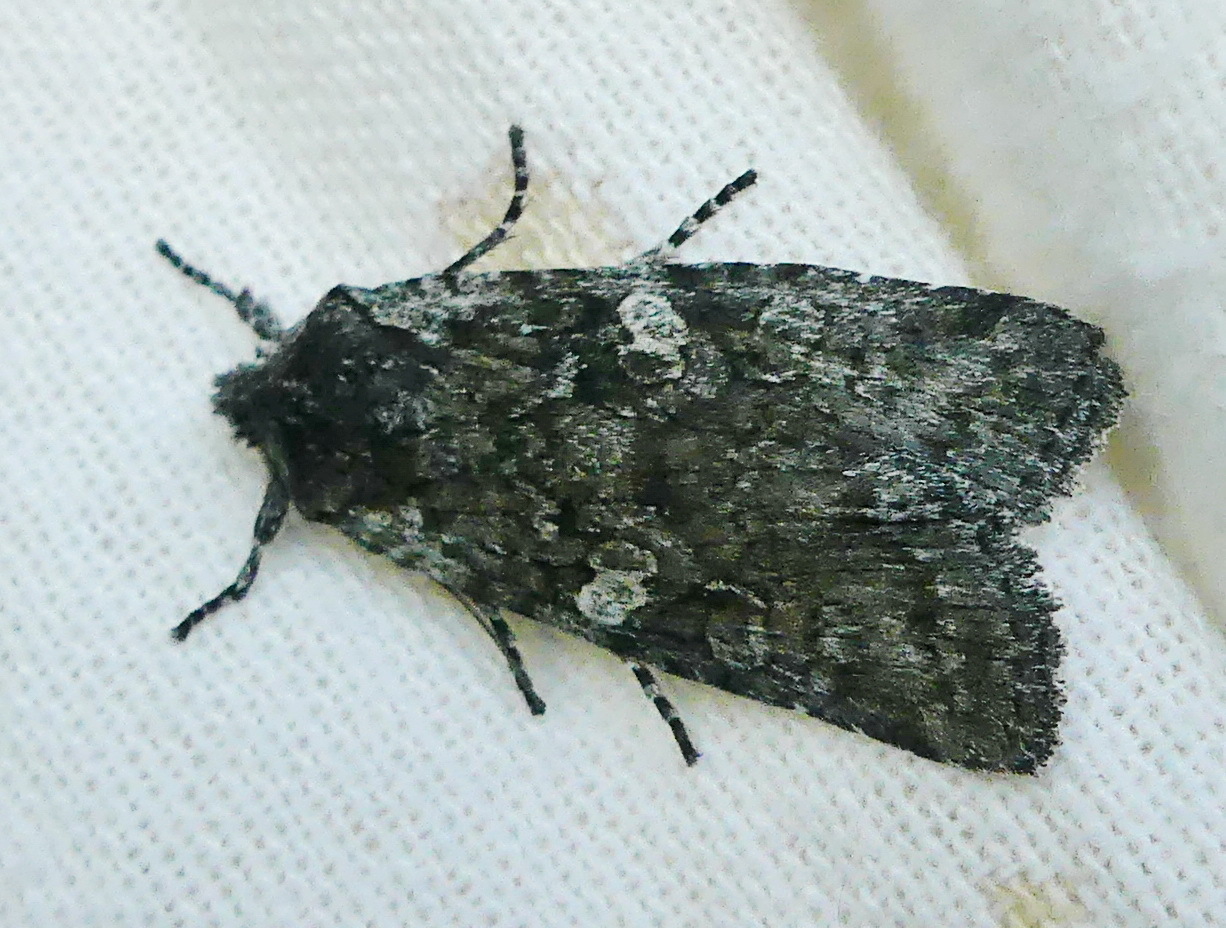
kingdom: Animalia
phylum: Arthropoda
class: Insecta
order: Lepidoptera
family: Noctuidae
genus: Lithophane
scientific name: Lithophane grotei
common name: Grote's pinion moth
